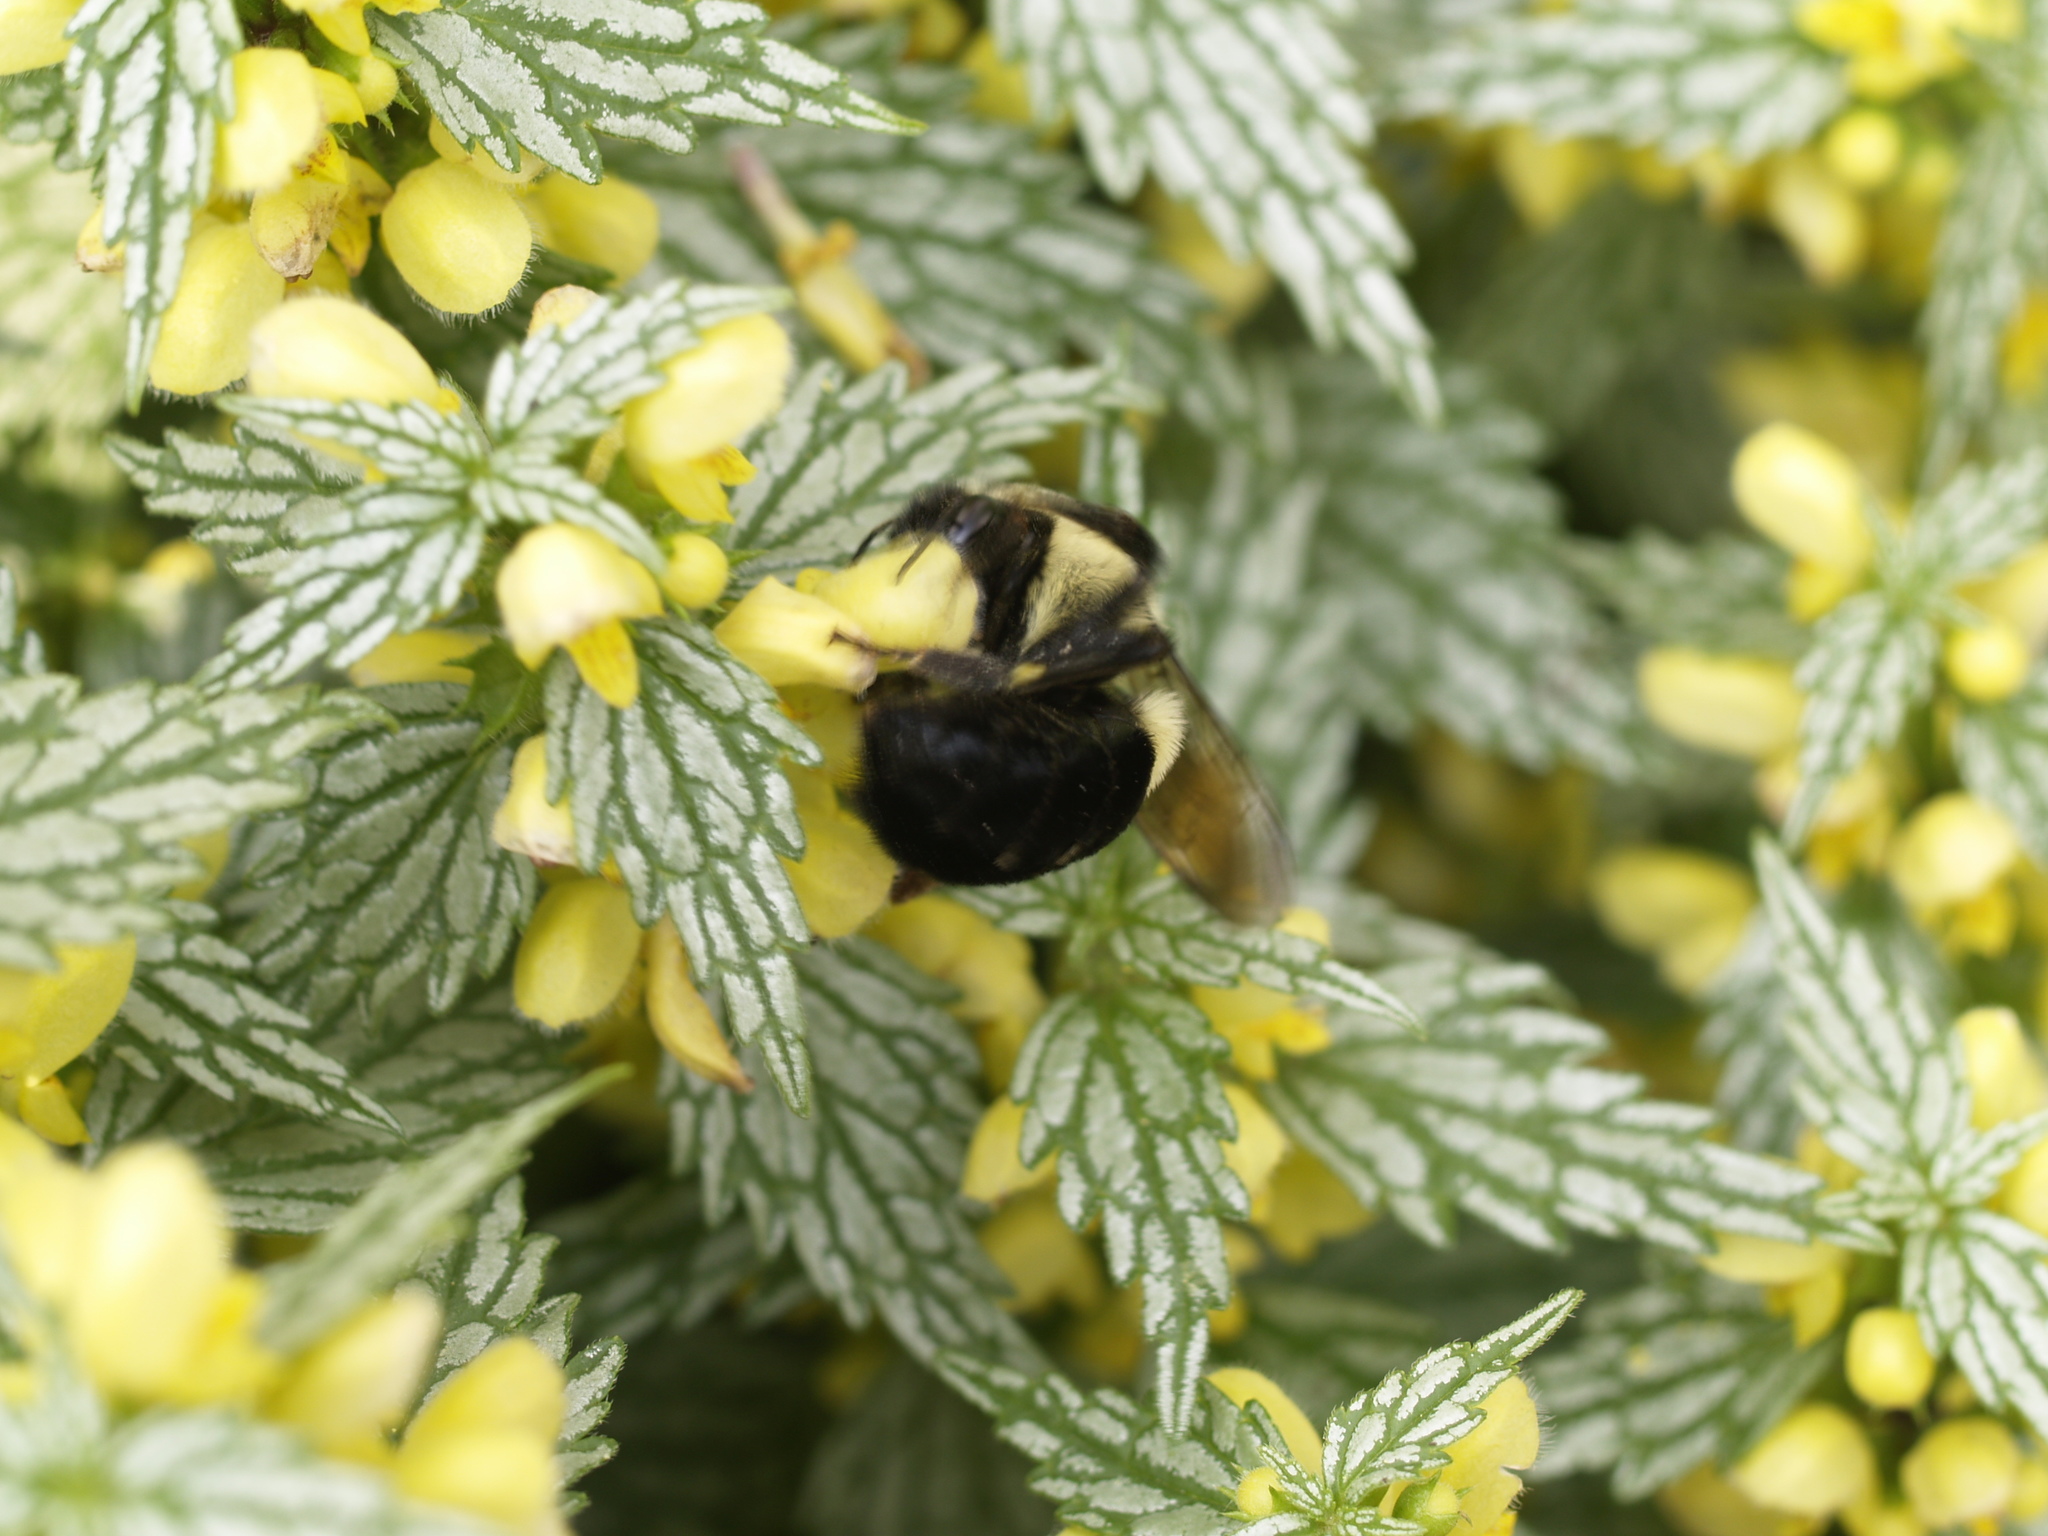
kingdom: Animalia
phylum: Arthropoda
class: Insecta
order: Hymenoptera
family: Apidae
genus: Bombus
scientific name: Bombus impatiens
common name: Common eastern bumble bee
